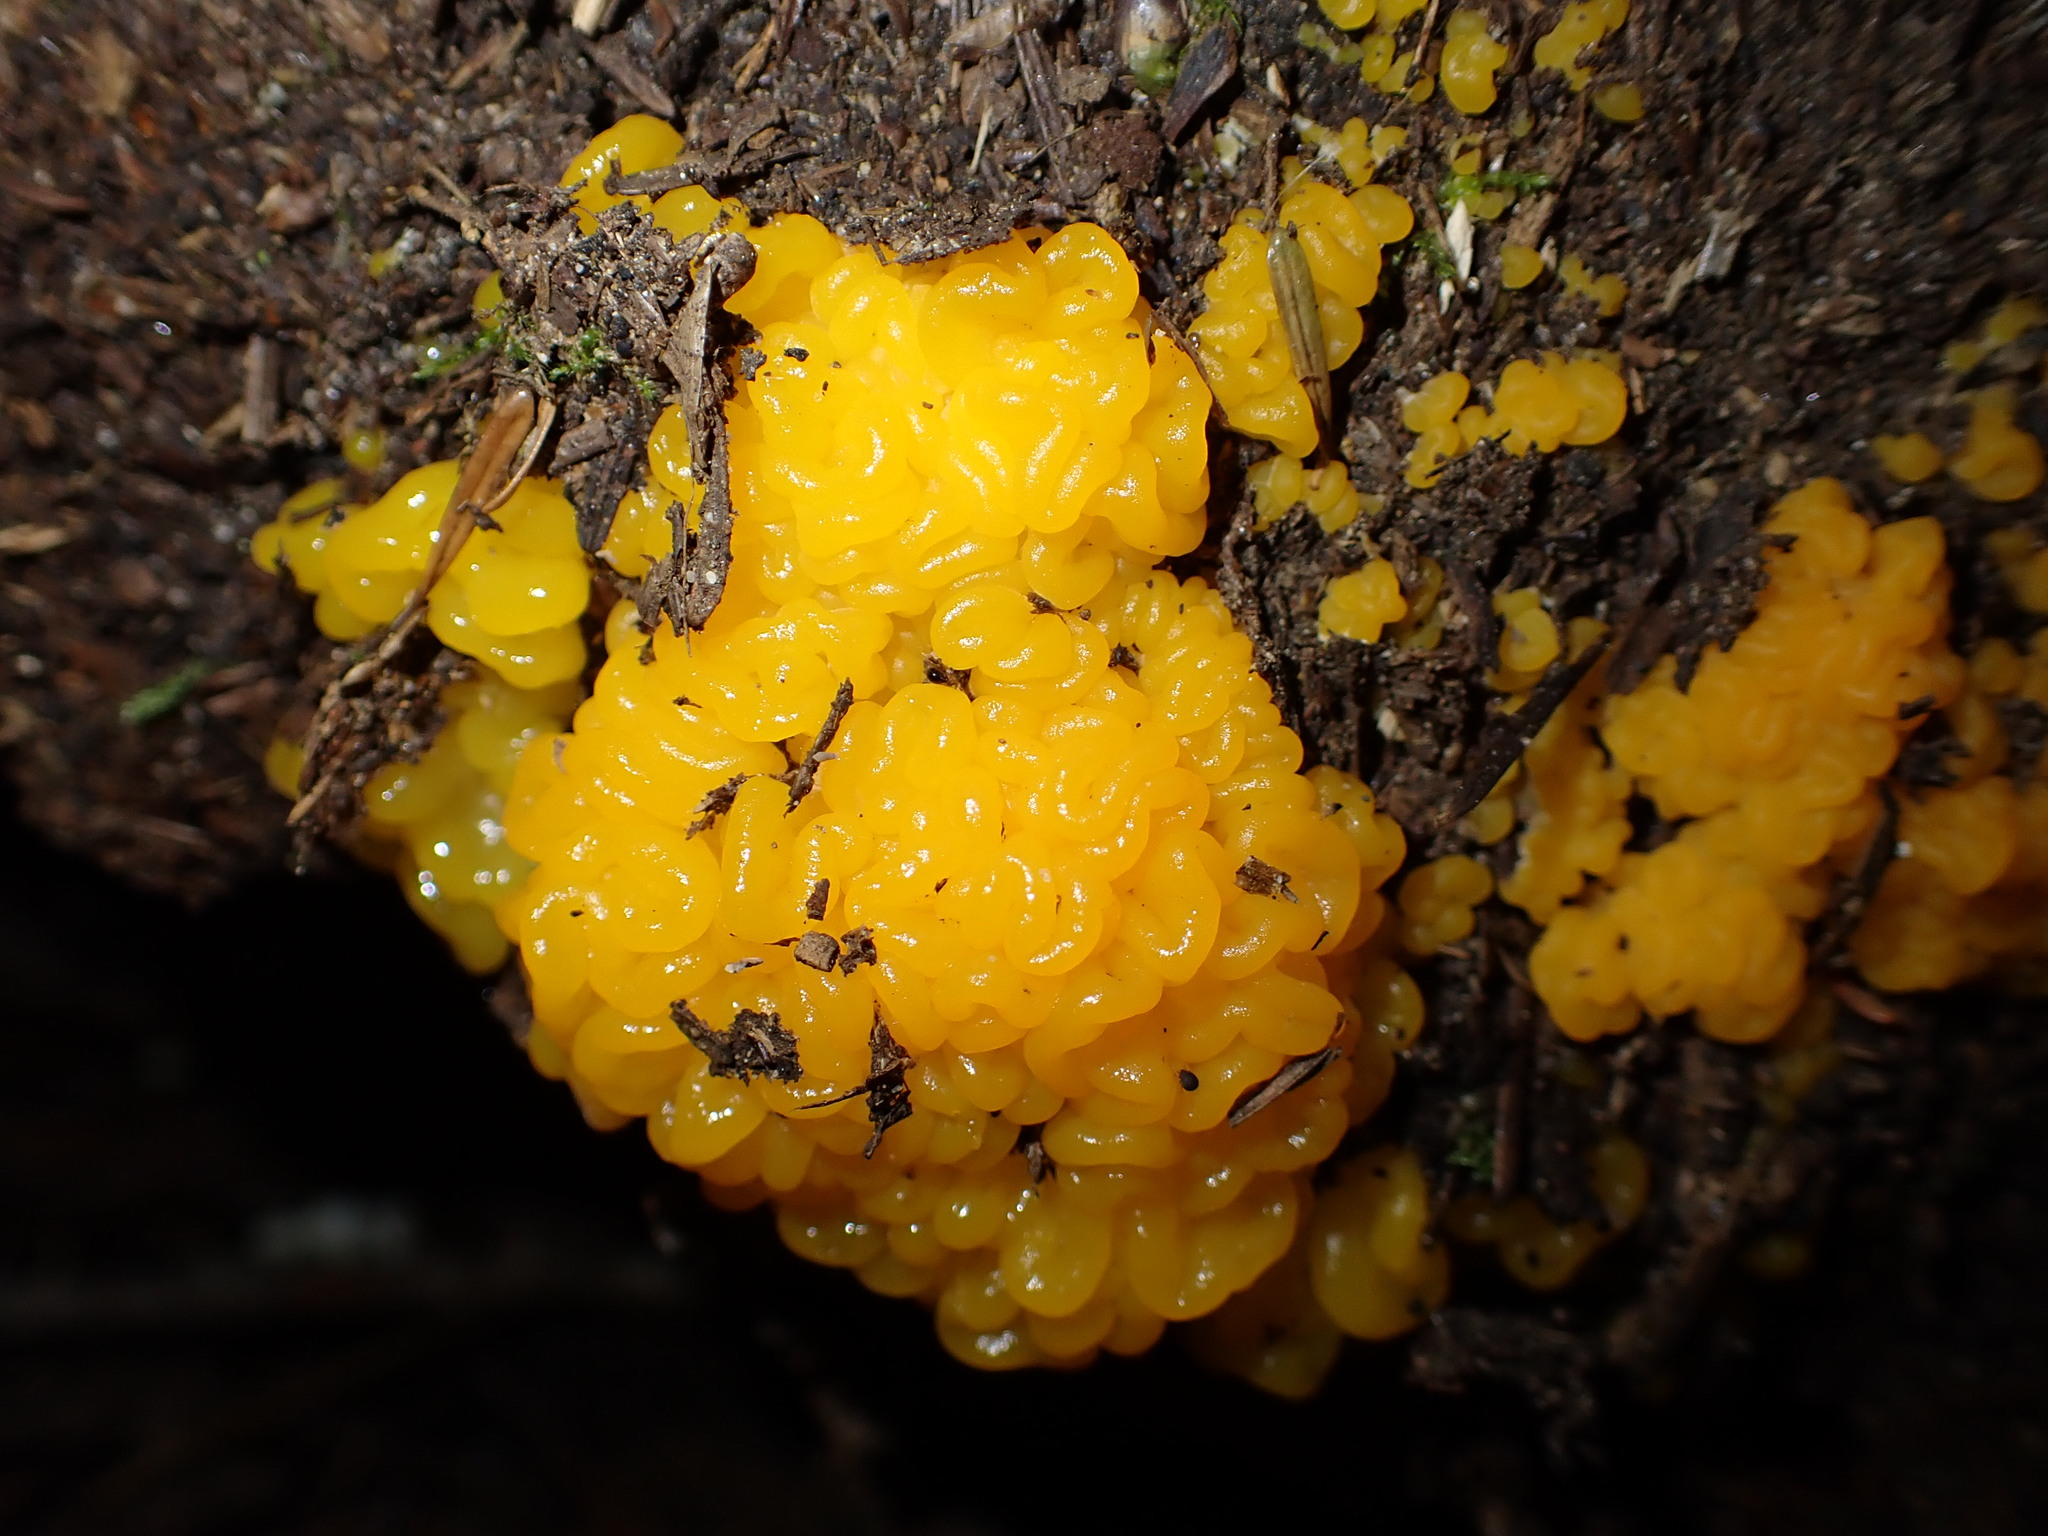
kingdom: Fungi
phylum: Basidiomycota
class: Dacrymycetes
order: Dacrymycetales
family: Dacrymycetaceae
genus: Dacrymyces
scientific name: Dacrymyces chrysospermus
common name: Orange jelly spot
